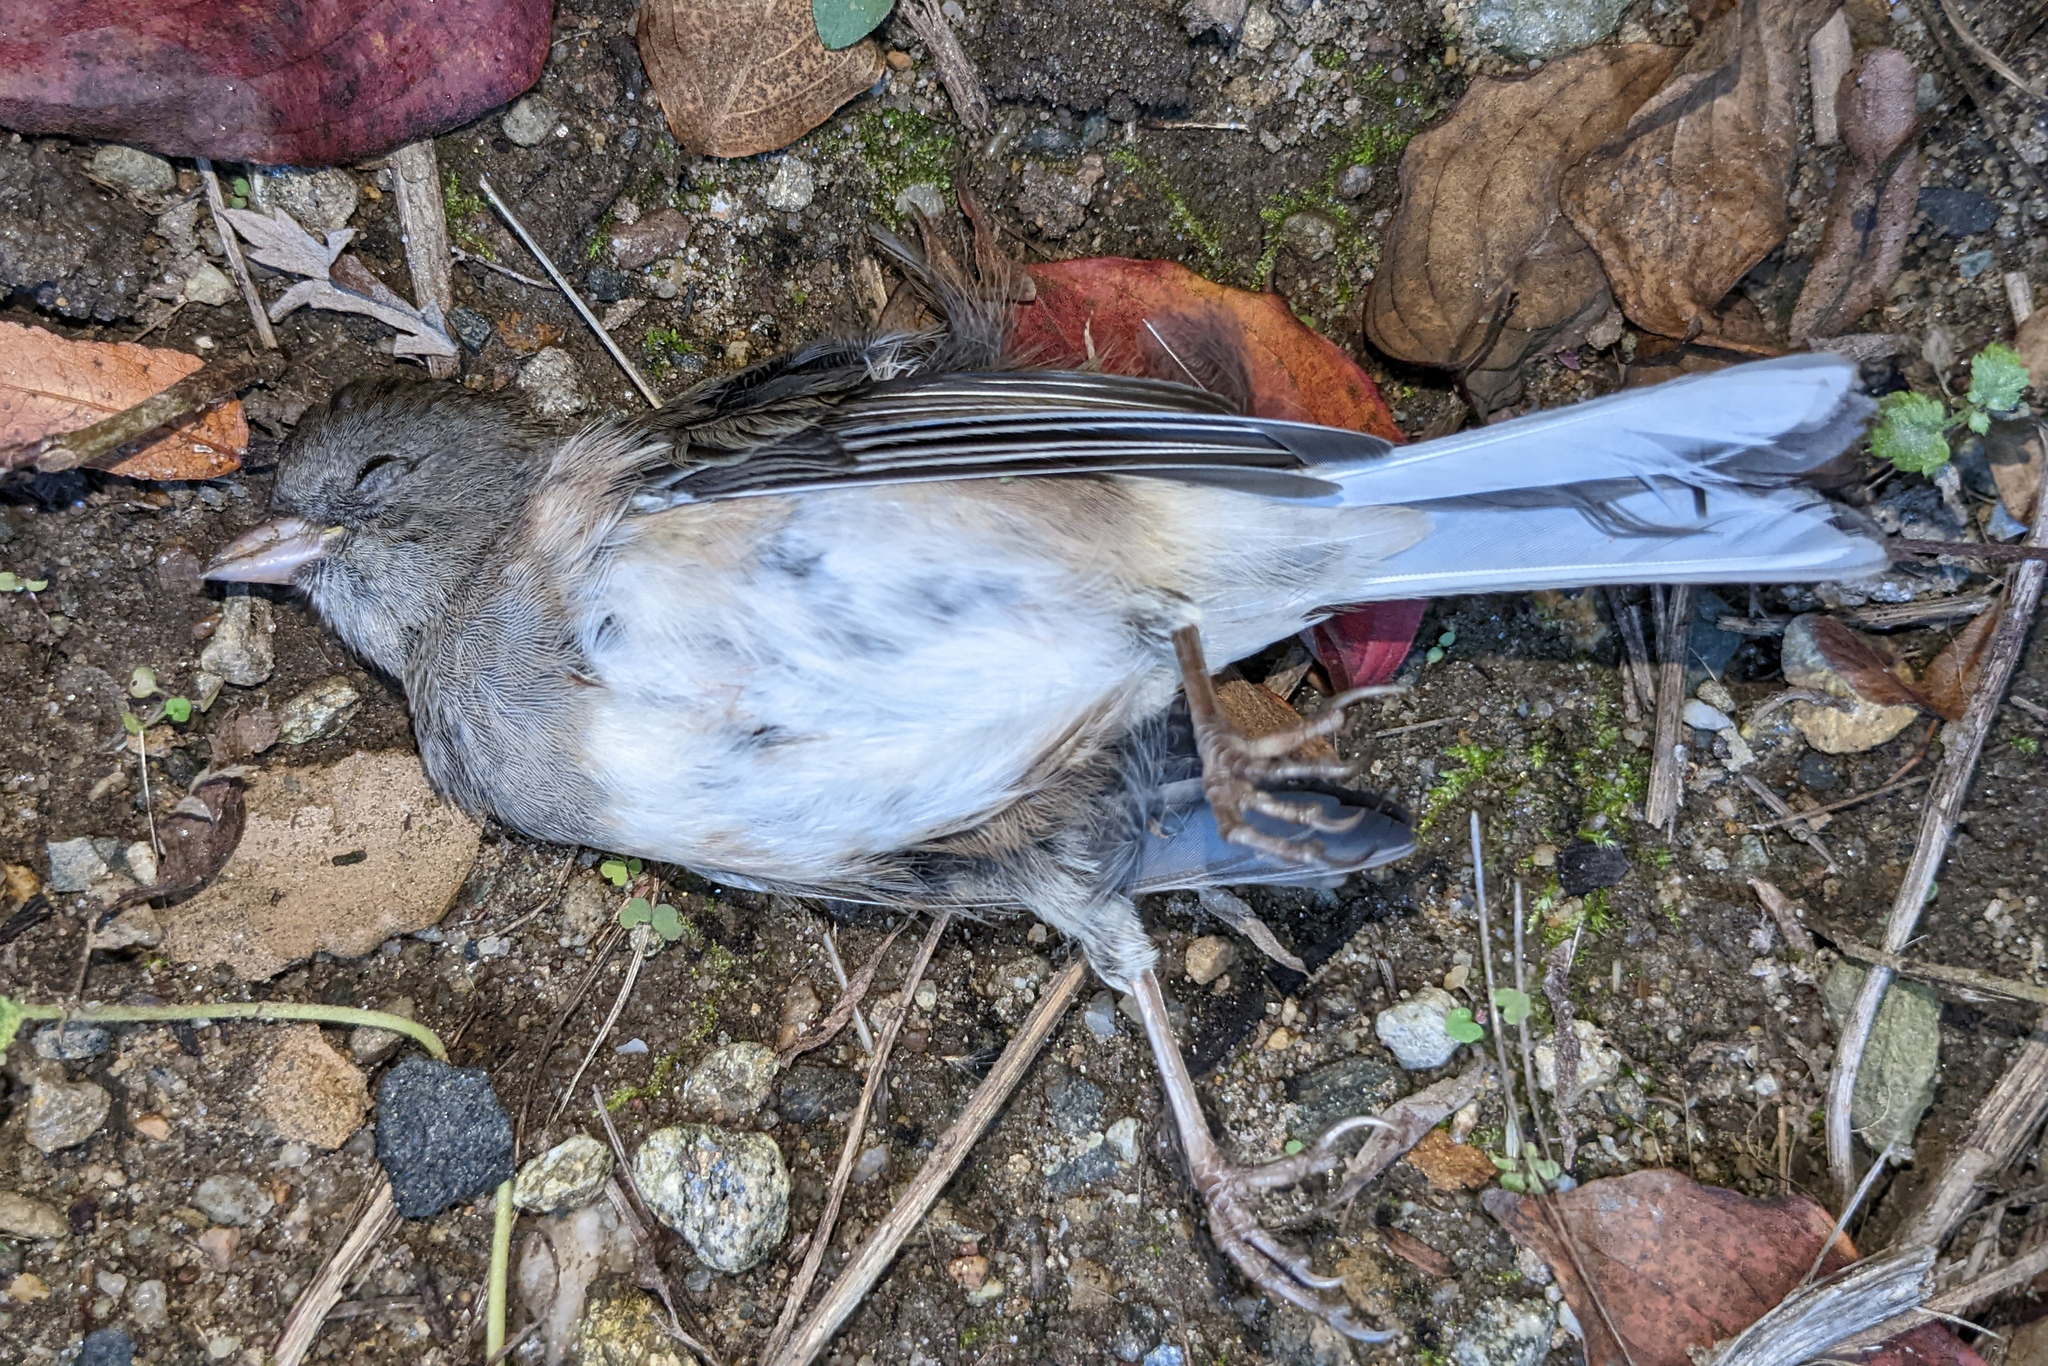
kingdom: Animalia
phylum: Chordata
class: Aves
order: Passeriformes
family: Passerellidae
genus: Junco
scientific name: Junco hyemalis
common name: Dark-eyed junco
